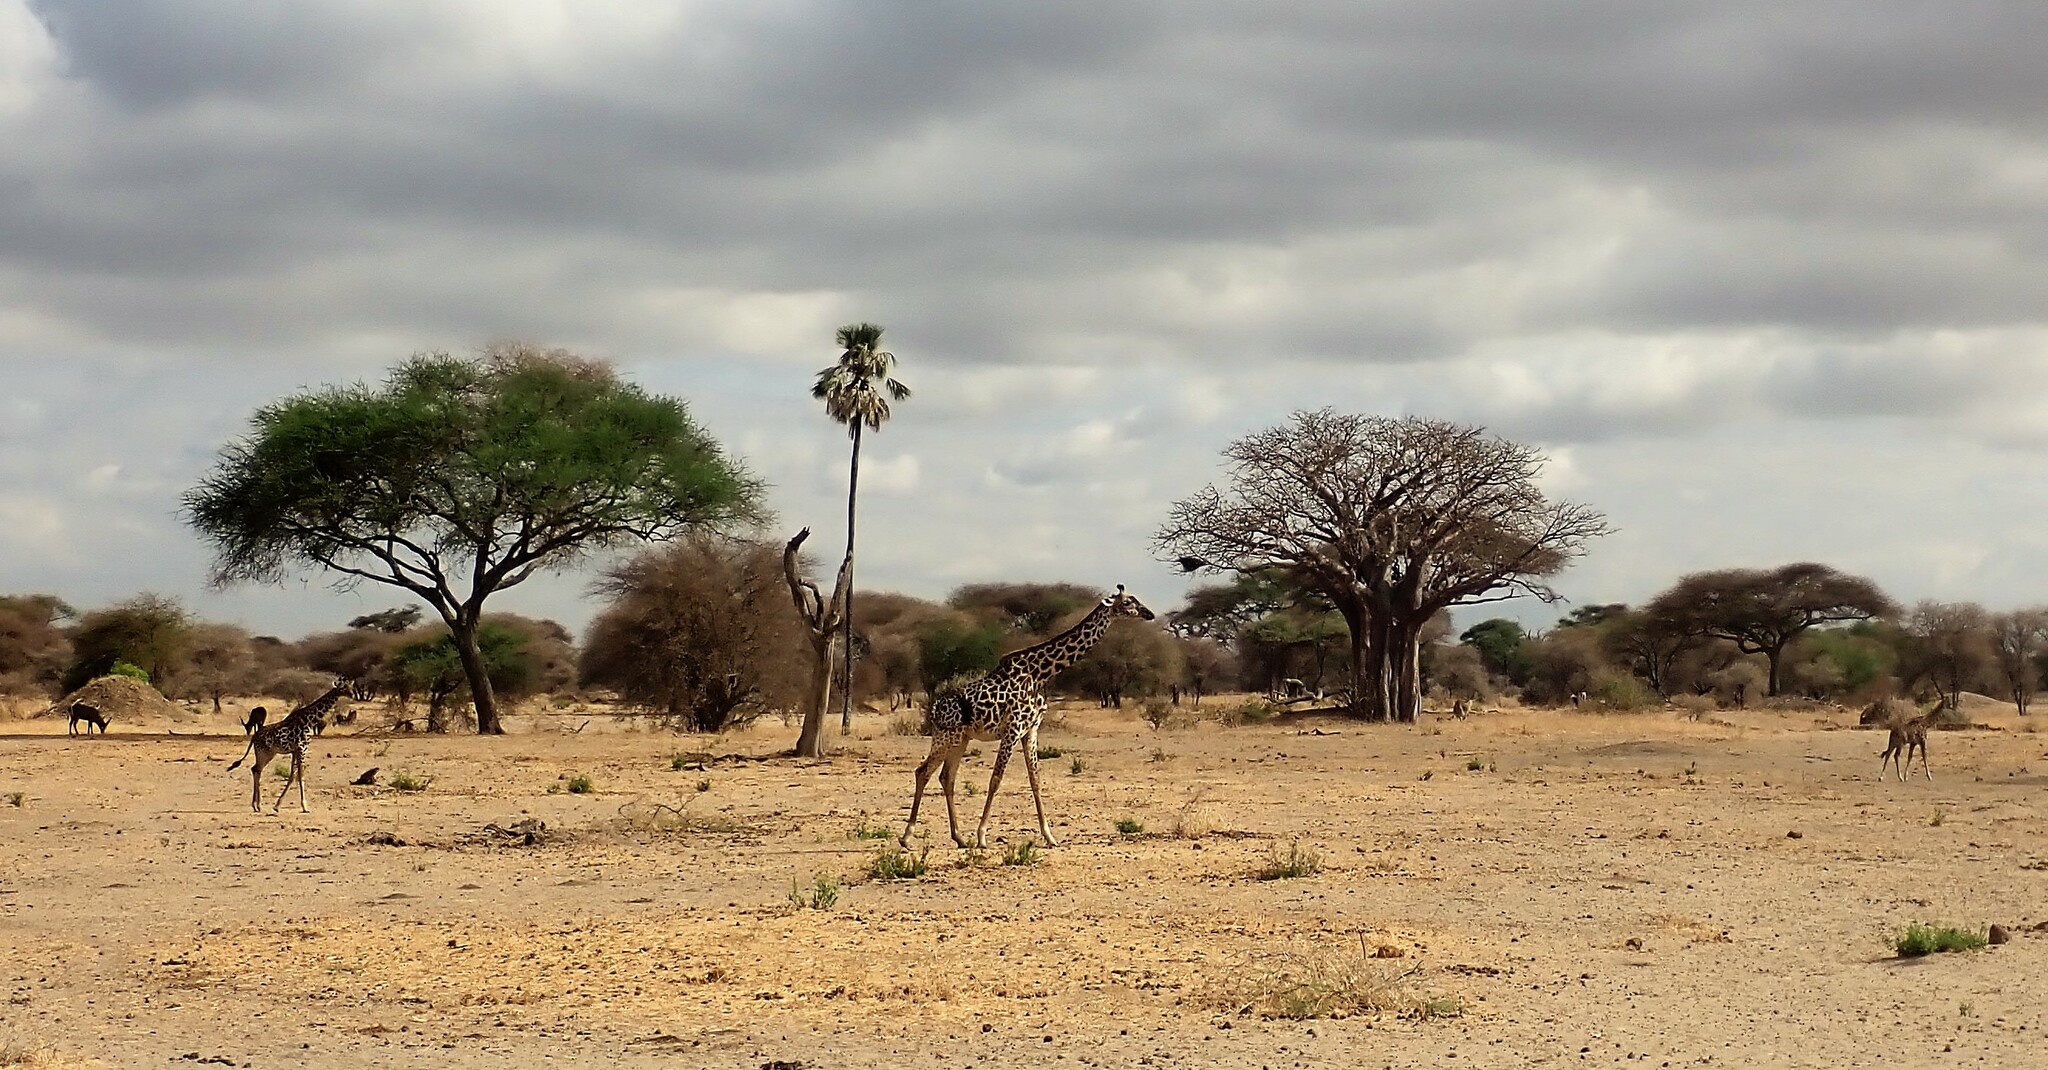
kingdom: Animalia
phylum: Chordata
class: Mammalia
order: Artiodactyla
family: Giraffidae
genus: Giraffa
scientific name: Giraffa tippelskirchi
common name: Masai giraffe
